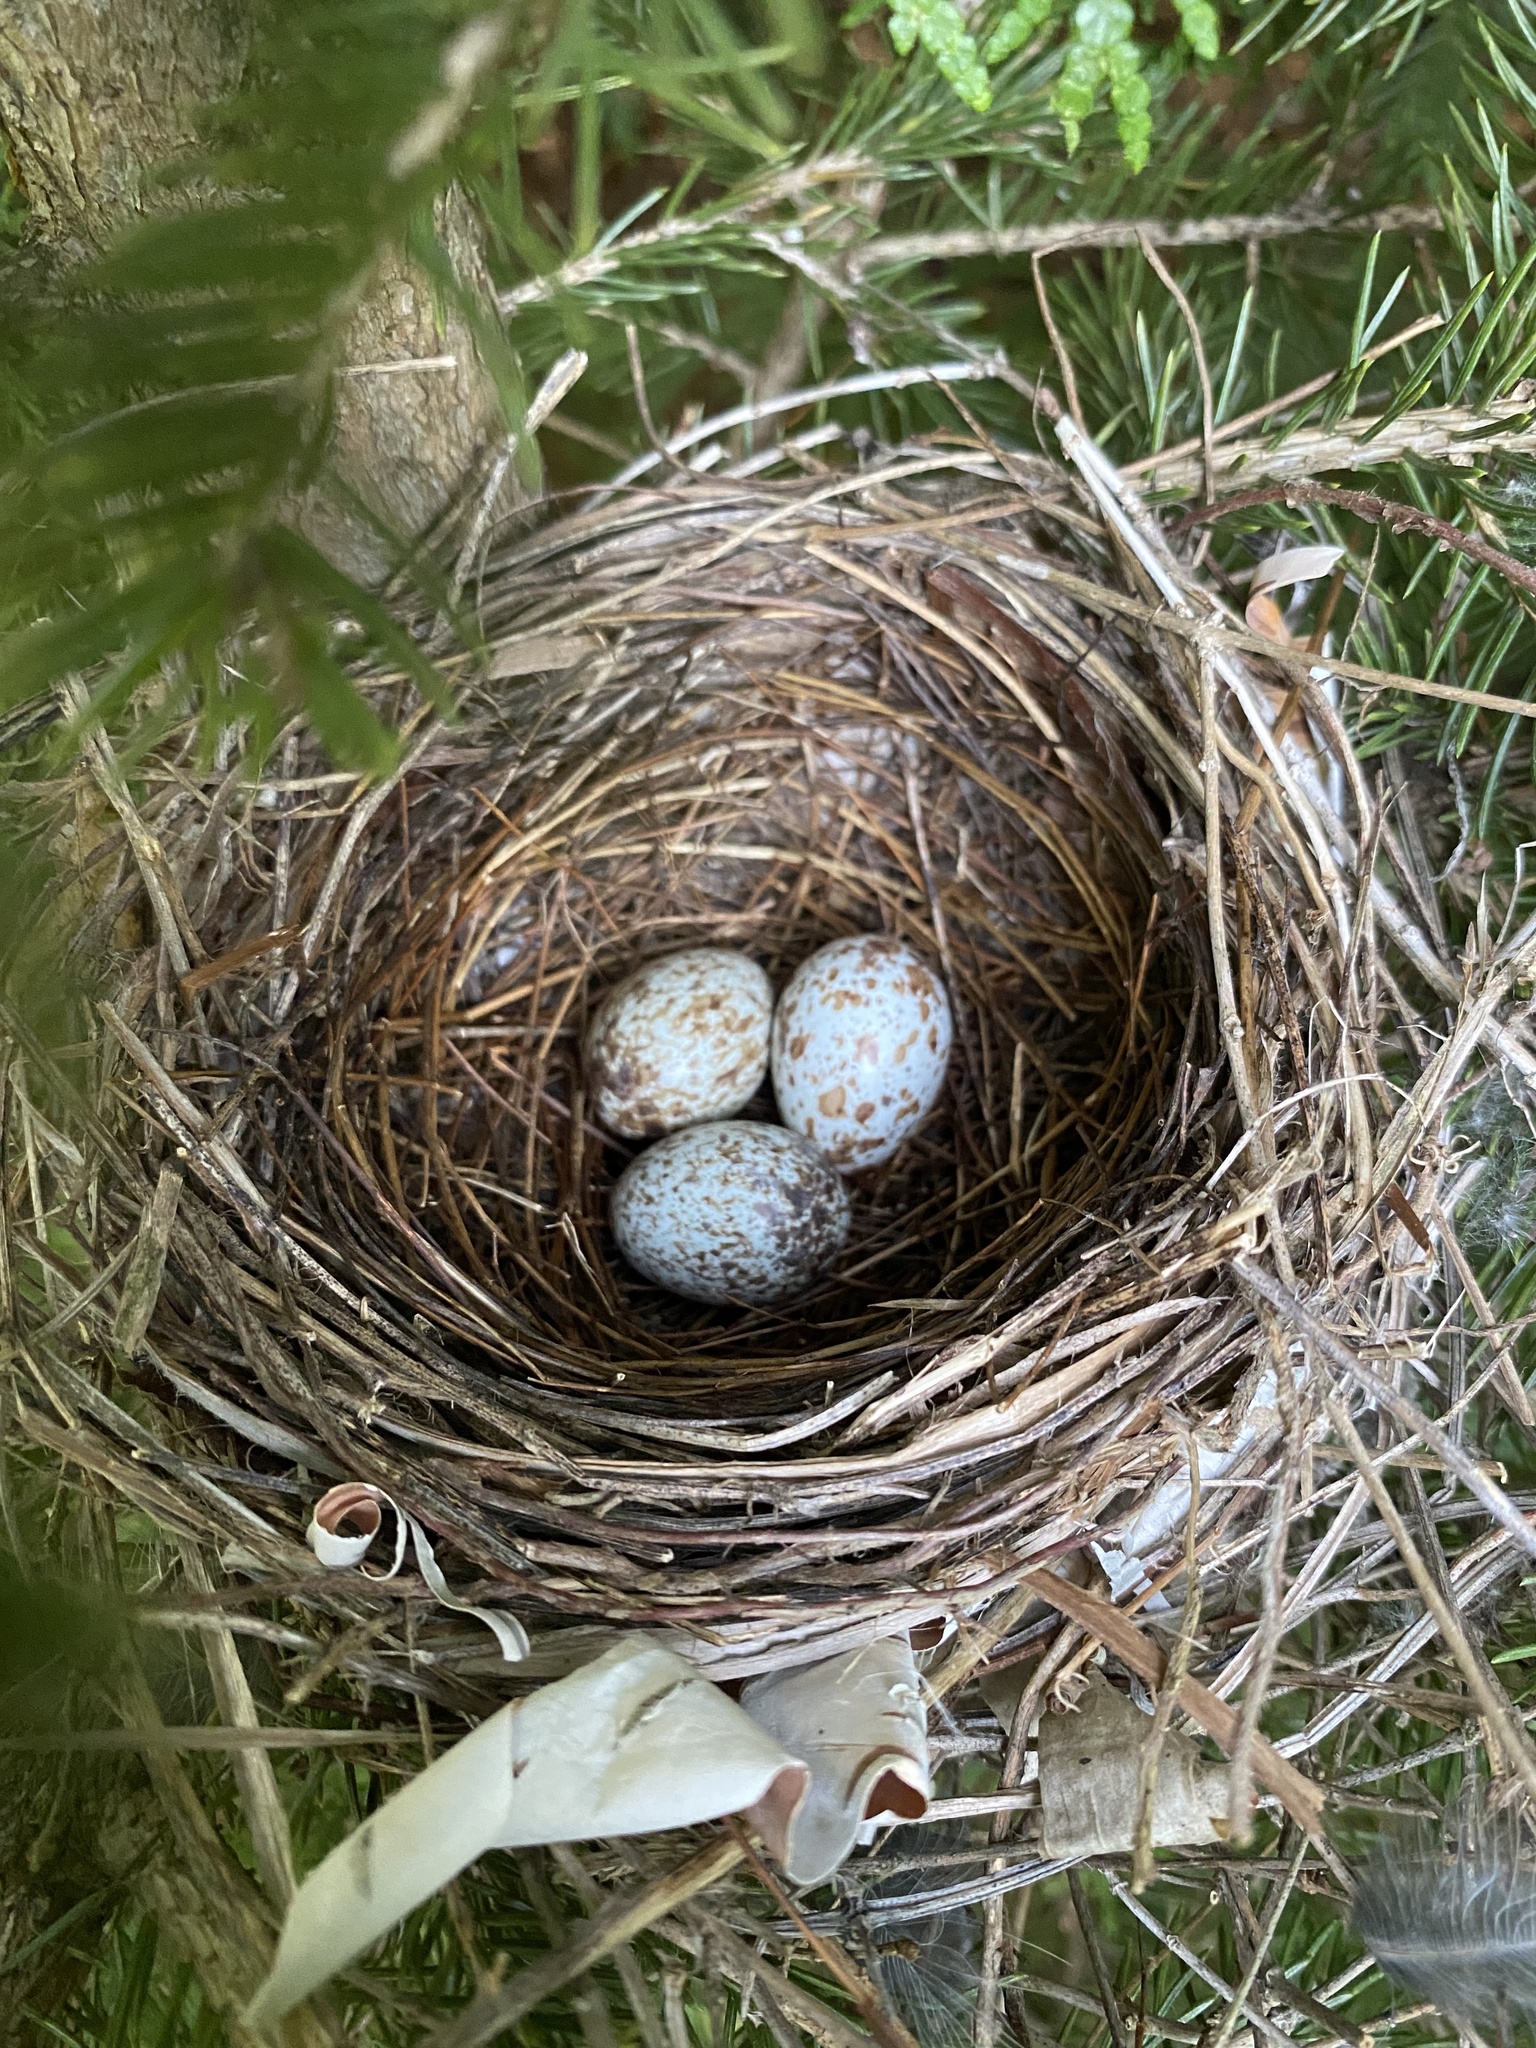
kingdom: Animalia
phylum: Chordata
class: Aves
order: Passeriformes
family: Cardinalidae
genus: Cardinalis
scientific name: Cardinalis cardinalis
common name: Northern cardinal
